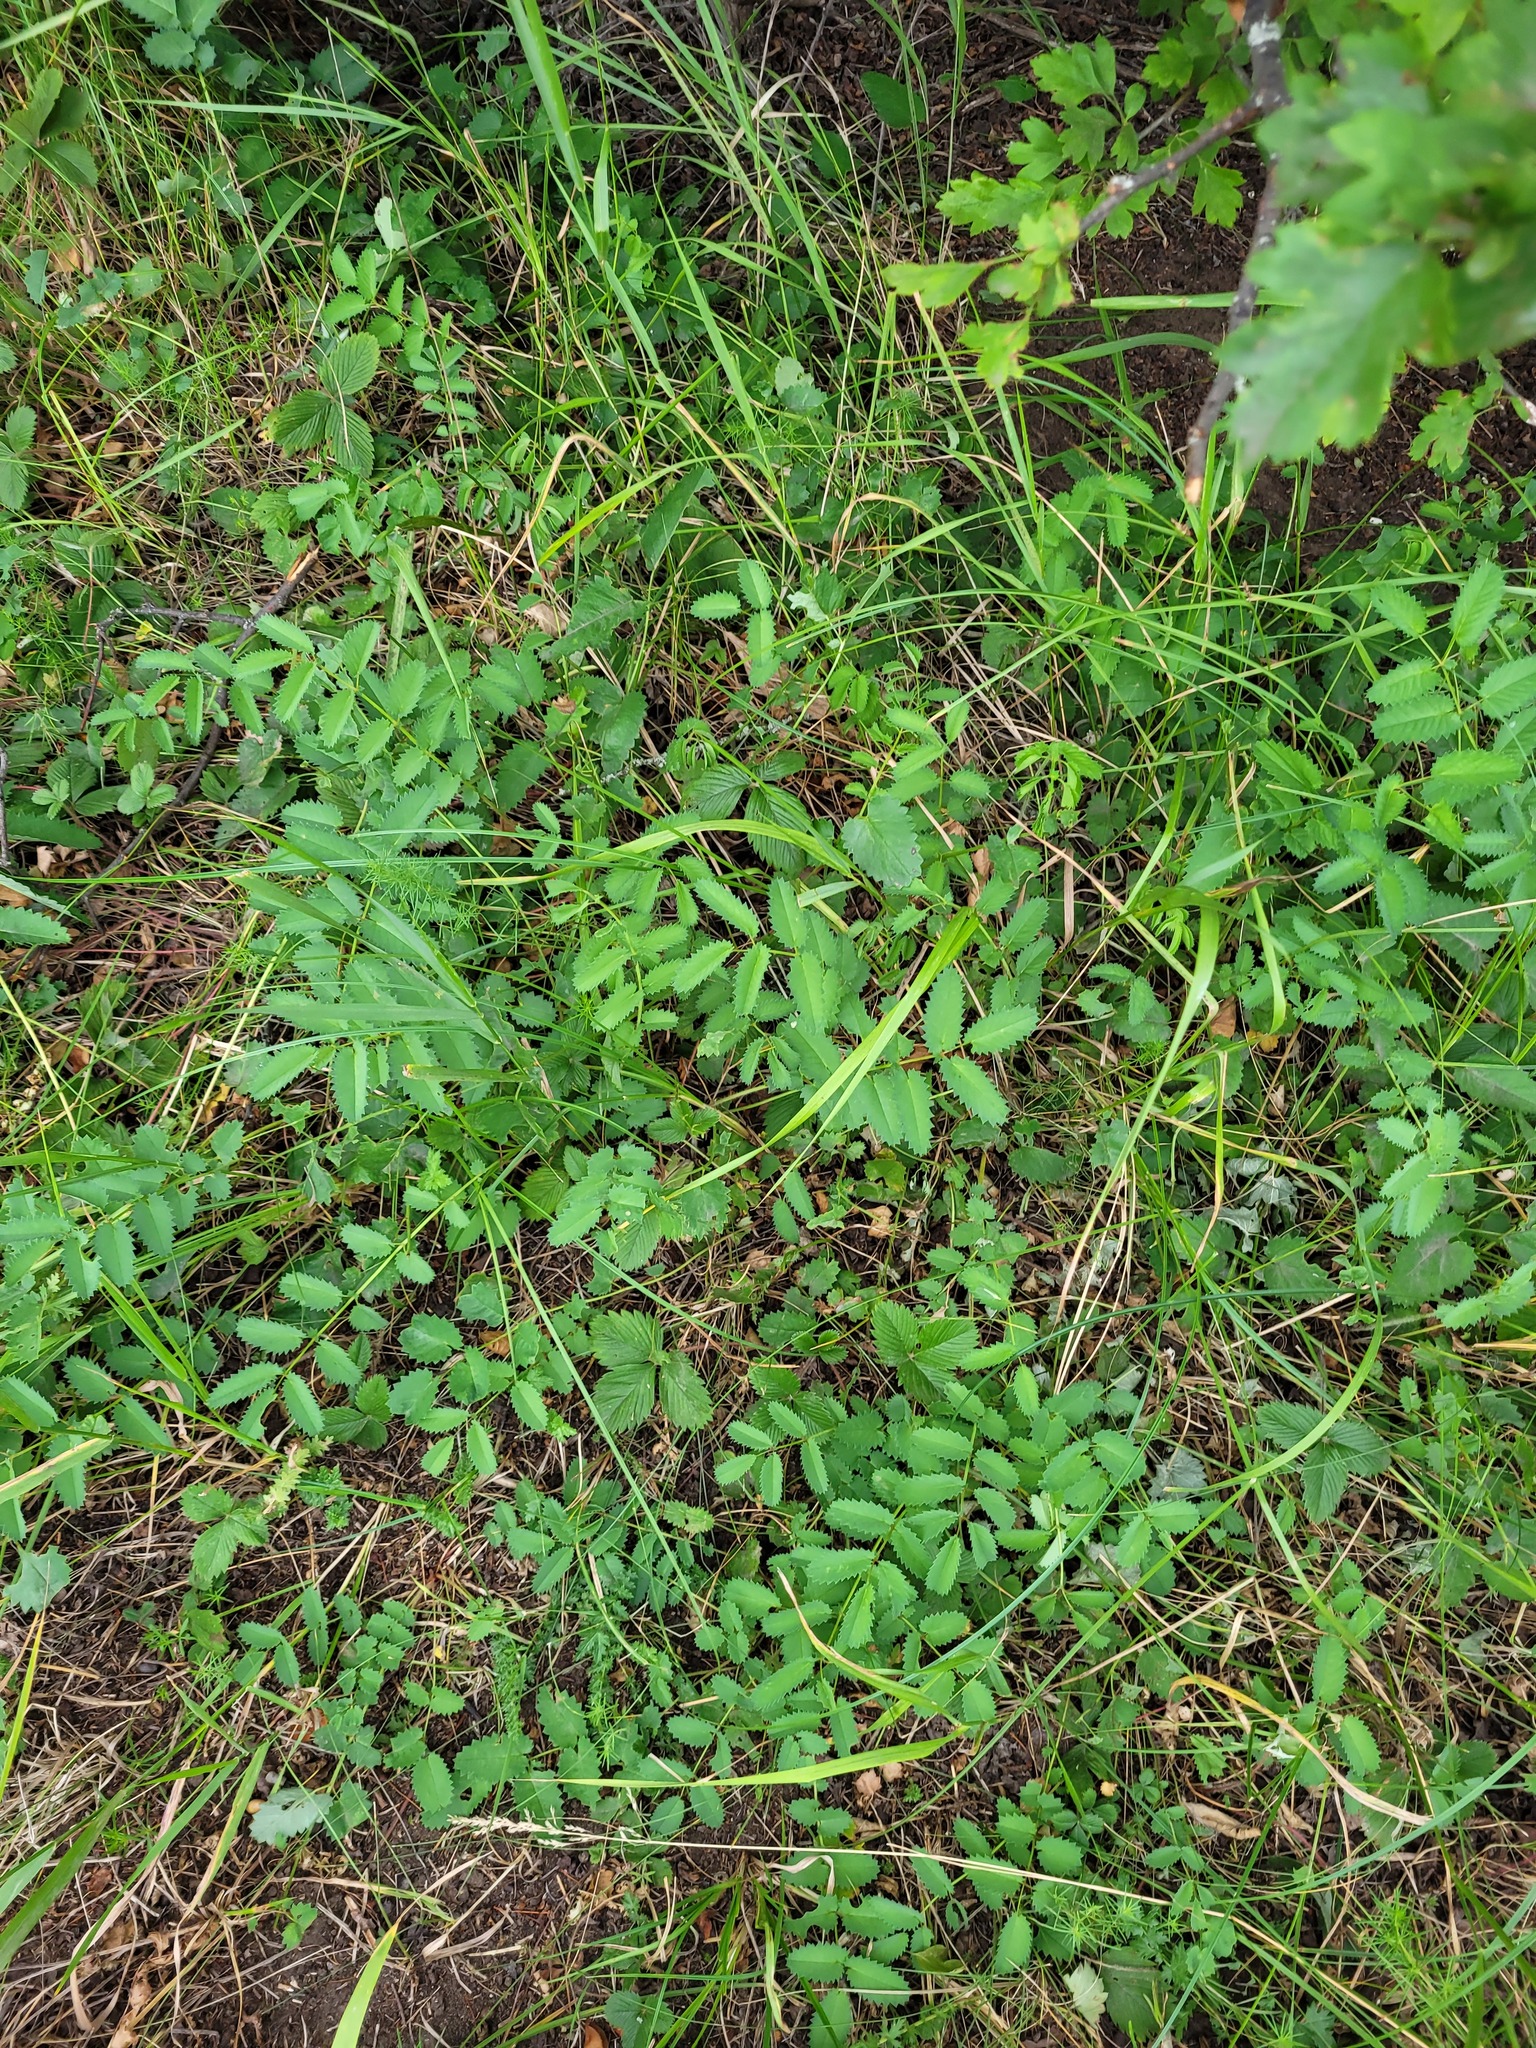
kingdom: Plantae
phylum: Tracheophyta
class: Magnoliopsida
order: Rosales
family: Rosaceae
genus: Sanguisorba
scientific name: Sanguisorba officinalis
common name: Great burnet
